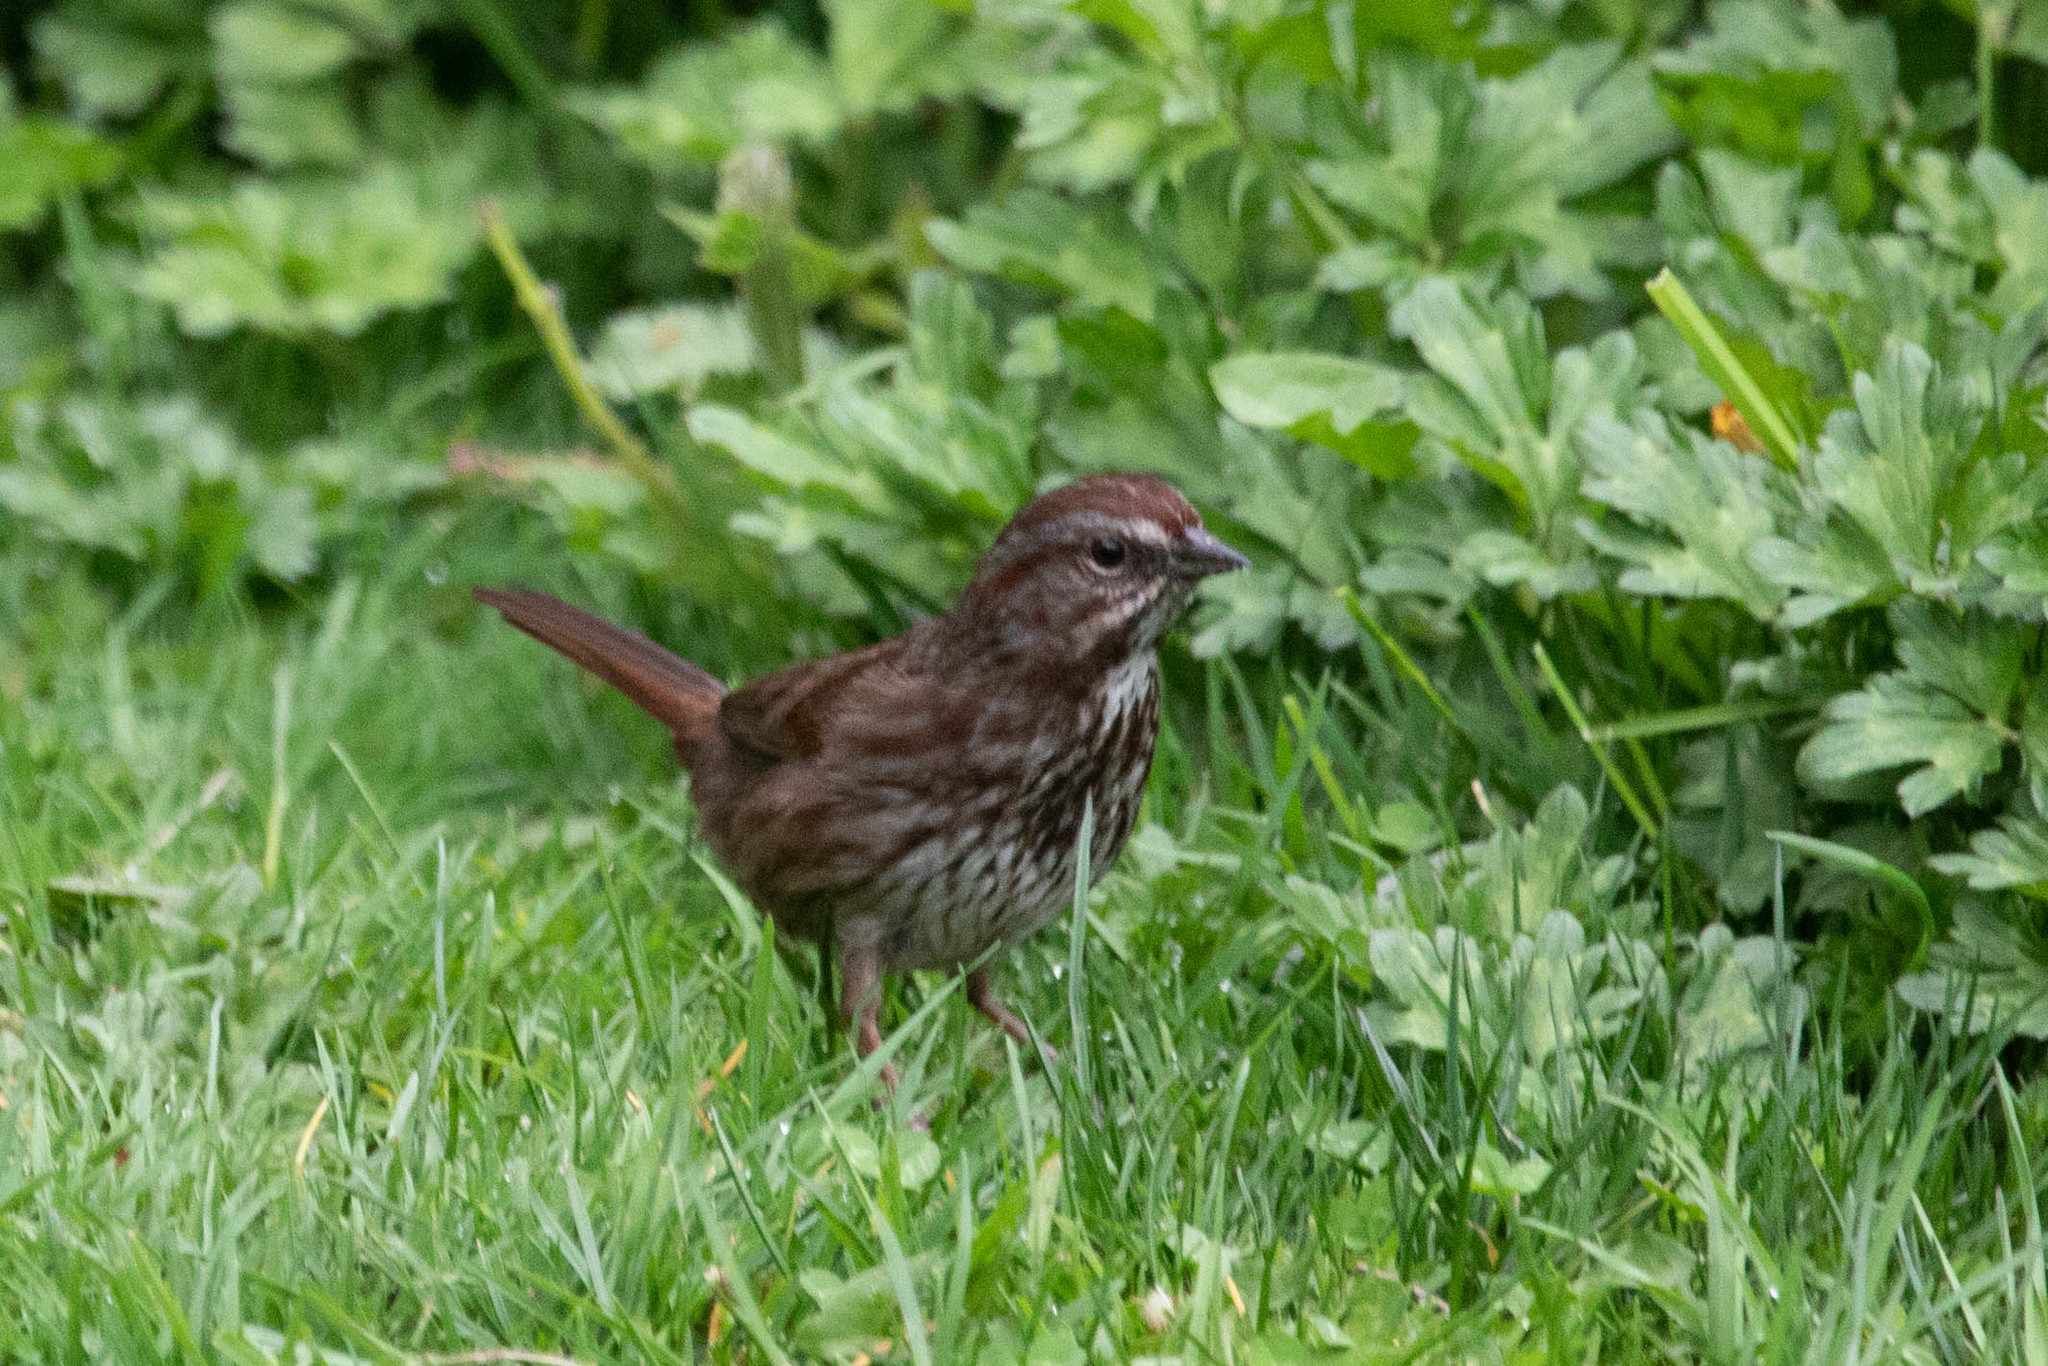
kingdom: Animalia
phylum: Chordata
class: Aves
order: Passeriformes
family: Passerellidae
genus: Melospiza
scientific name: Melospiza melodia
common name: Song sparrow
